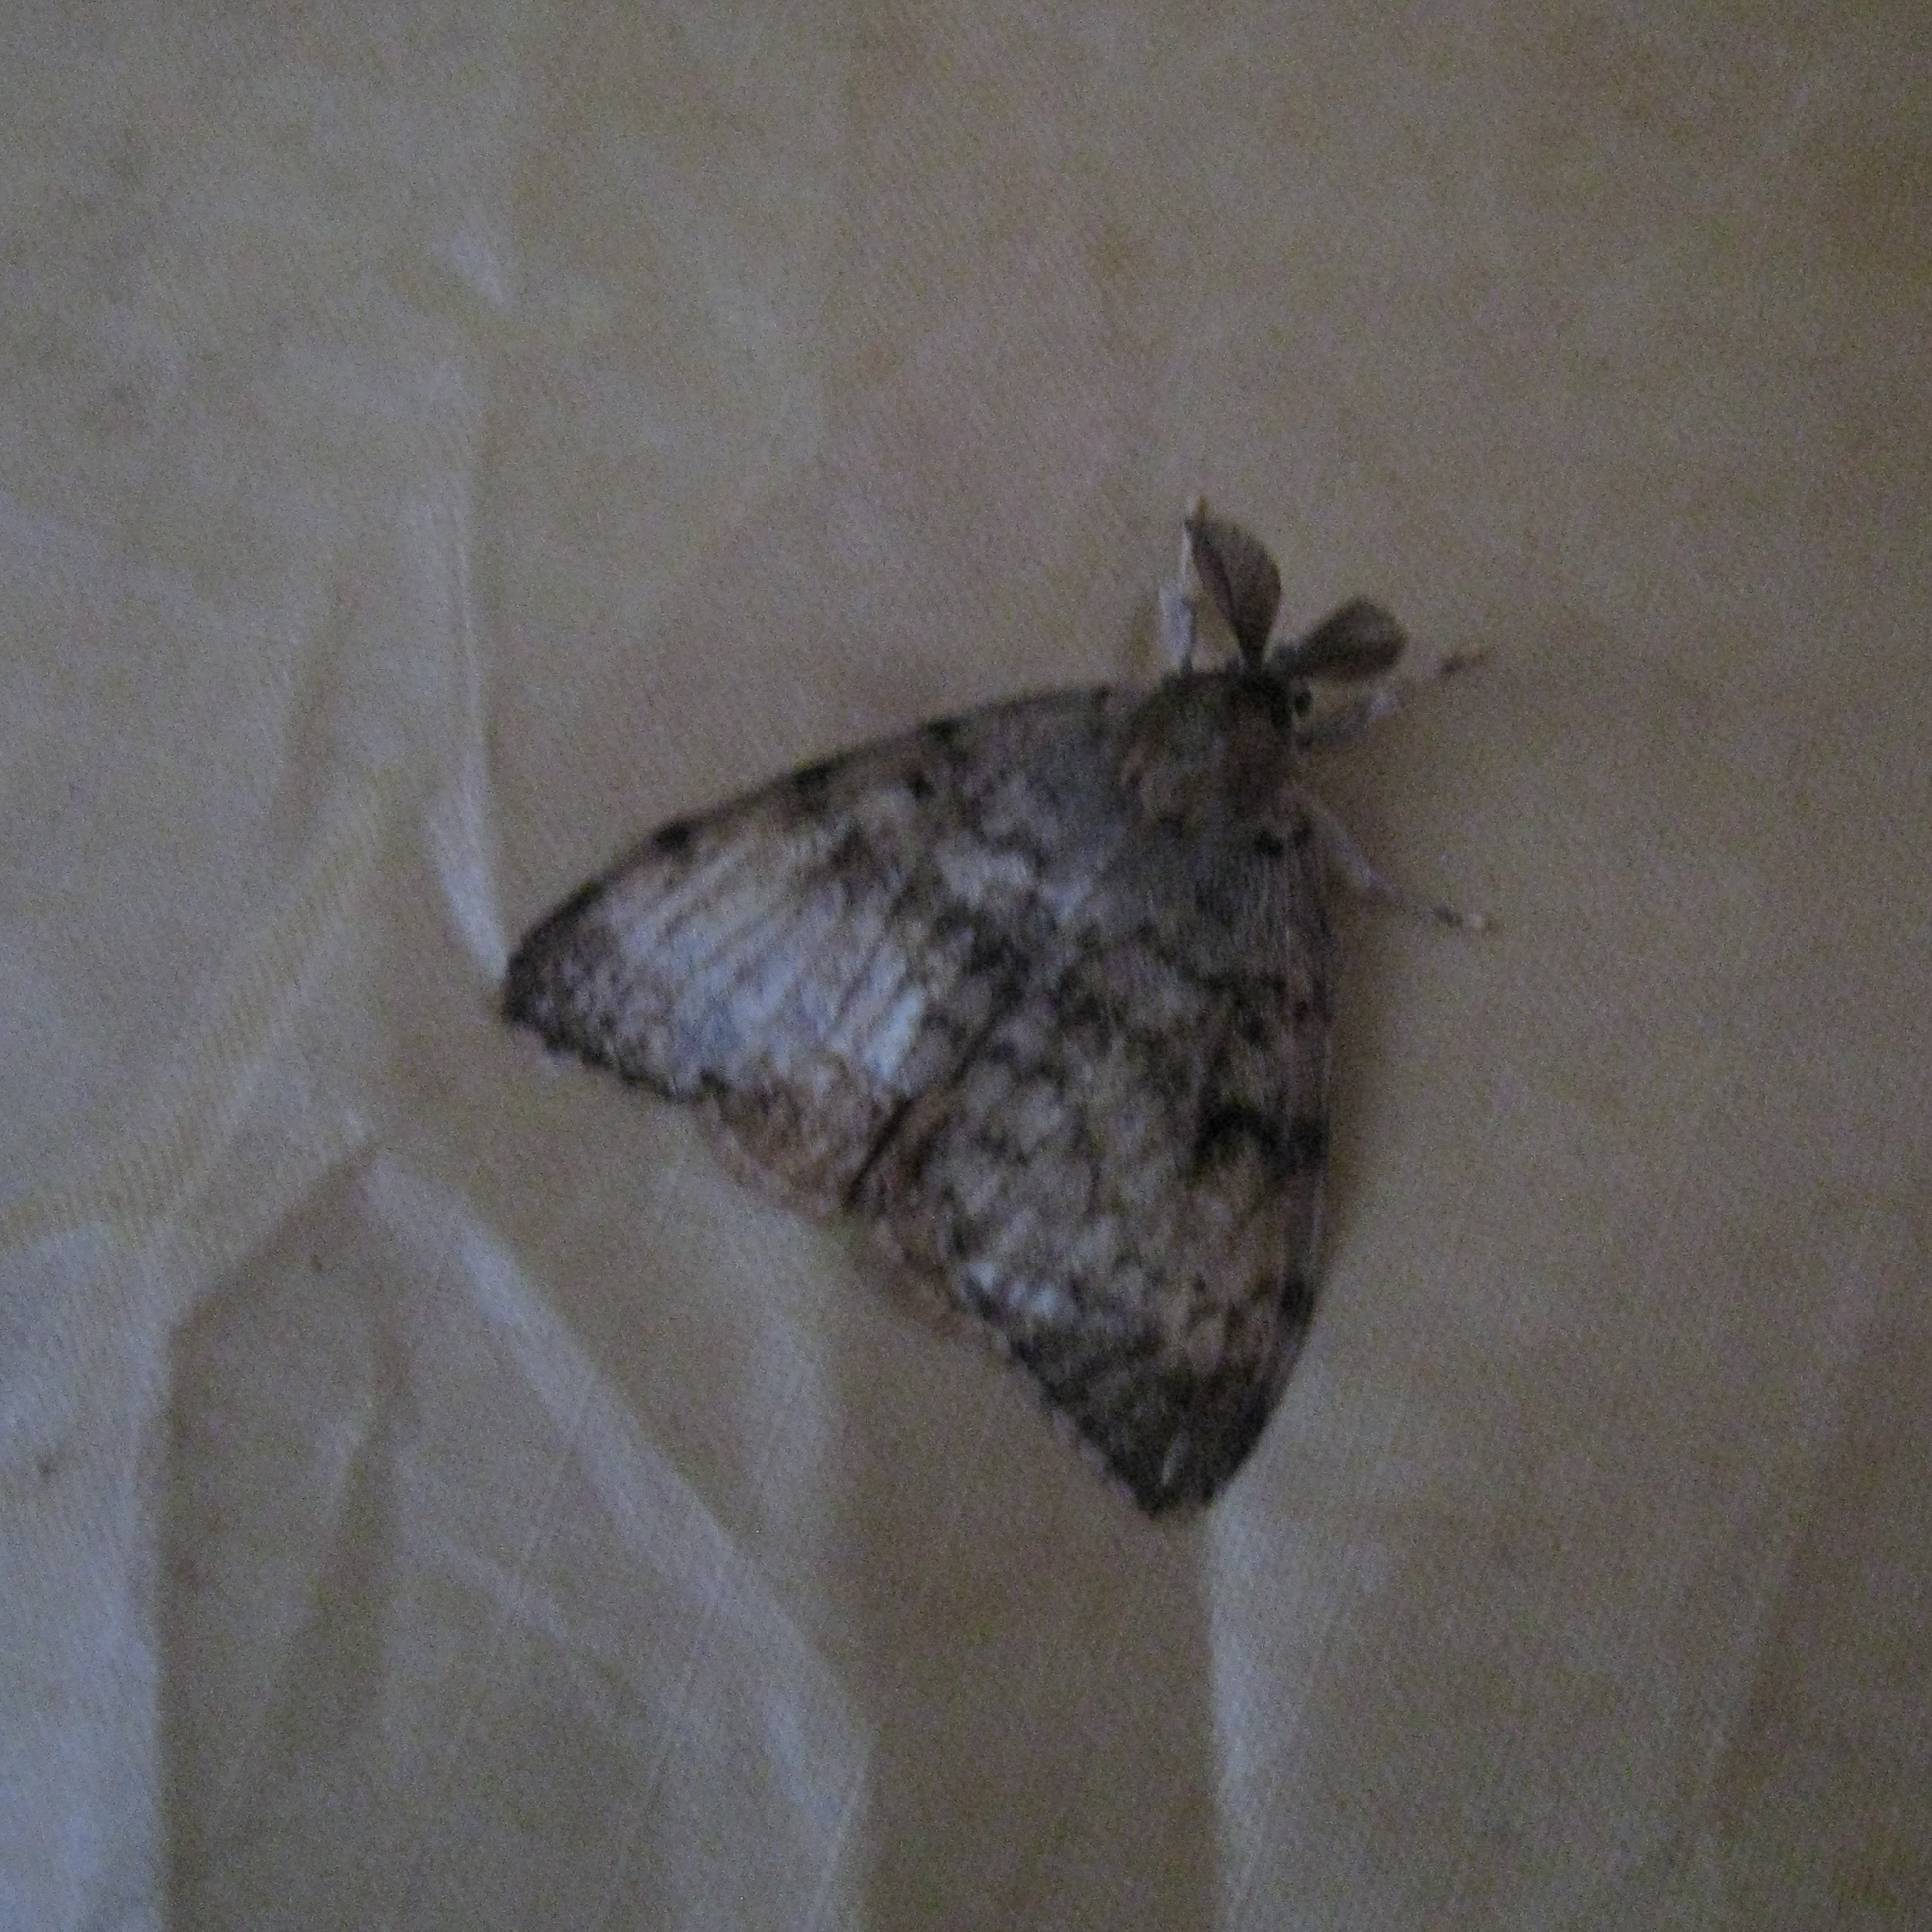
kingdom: Animalia
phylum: Arthropoda
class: Insecta
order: Lepidoptera
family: Erebidae
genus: Lymantria
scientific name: Lymantria dispar
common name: Gypsy moth
